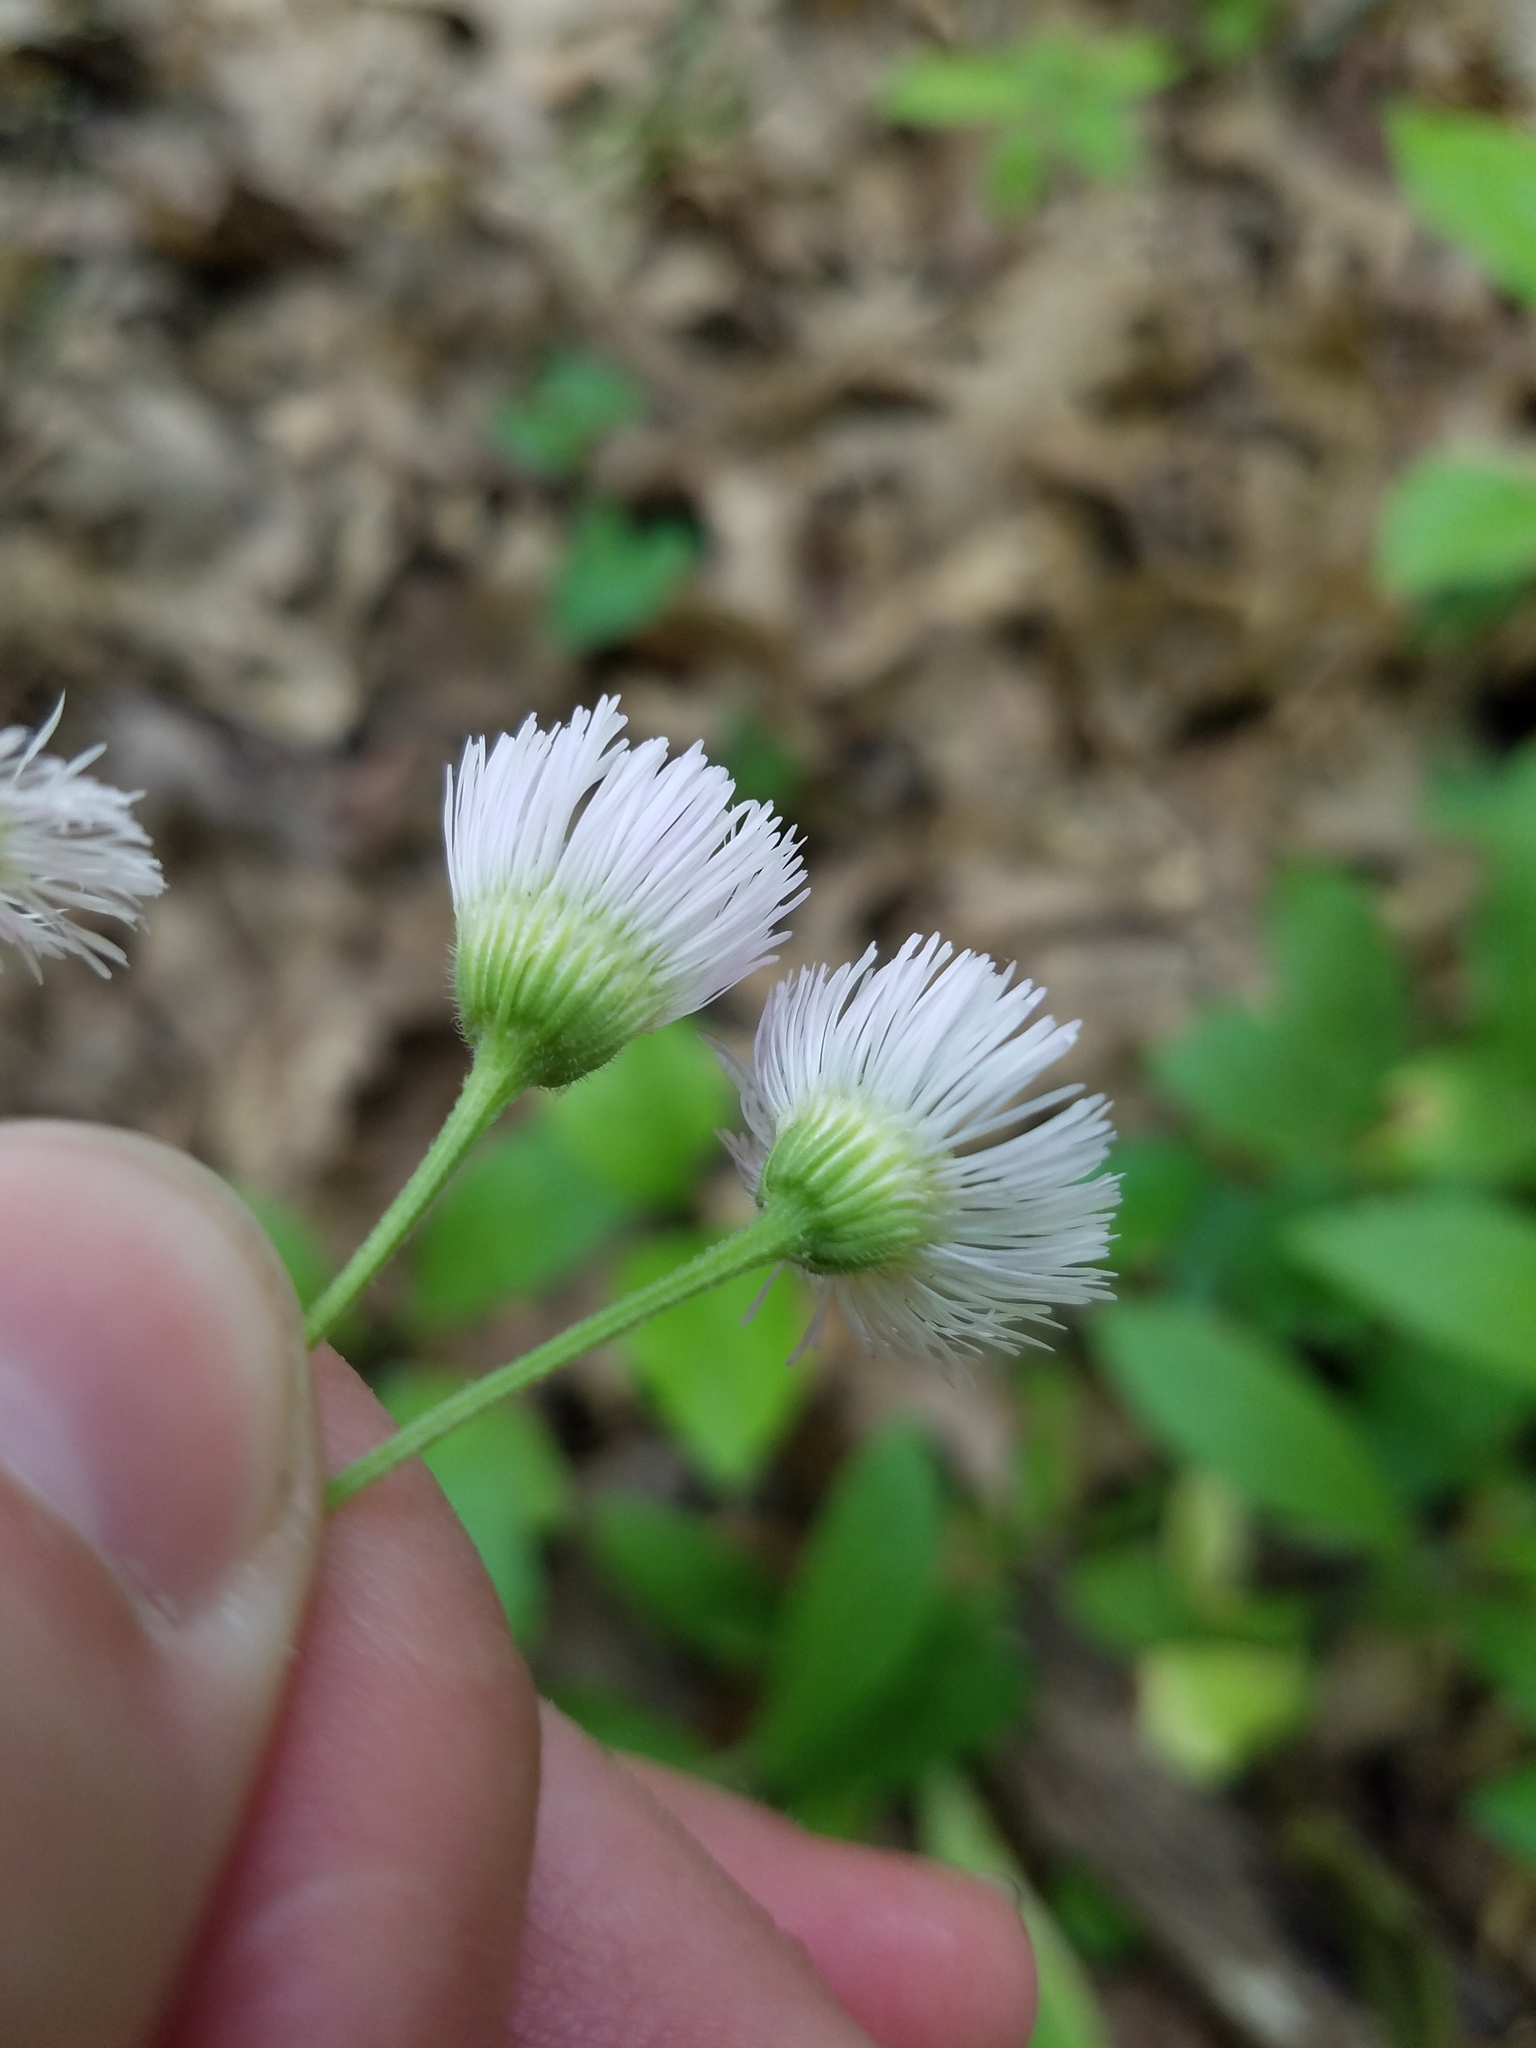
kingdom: Plantae
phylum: Tracheophyta
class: Magnoliopsida
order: Asterales
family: Asteraceae
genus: Erigeron
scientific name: Erigeron philadelphicus
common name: Robin's-plantain
